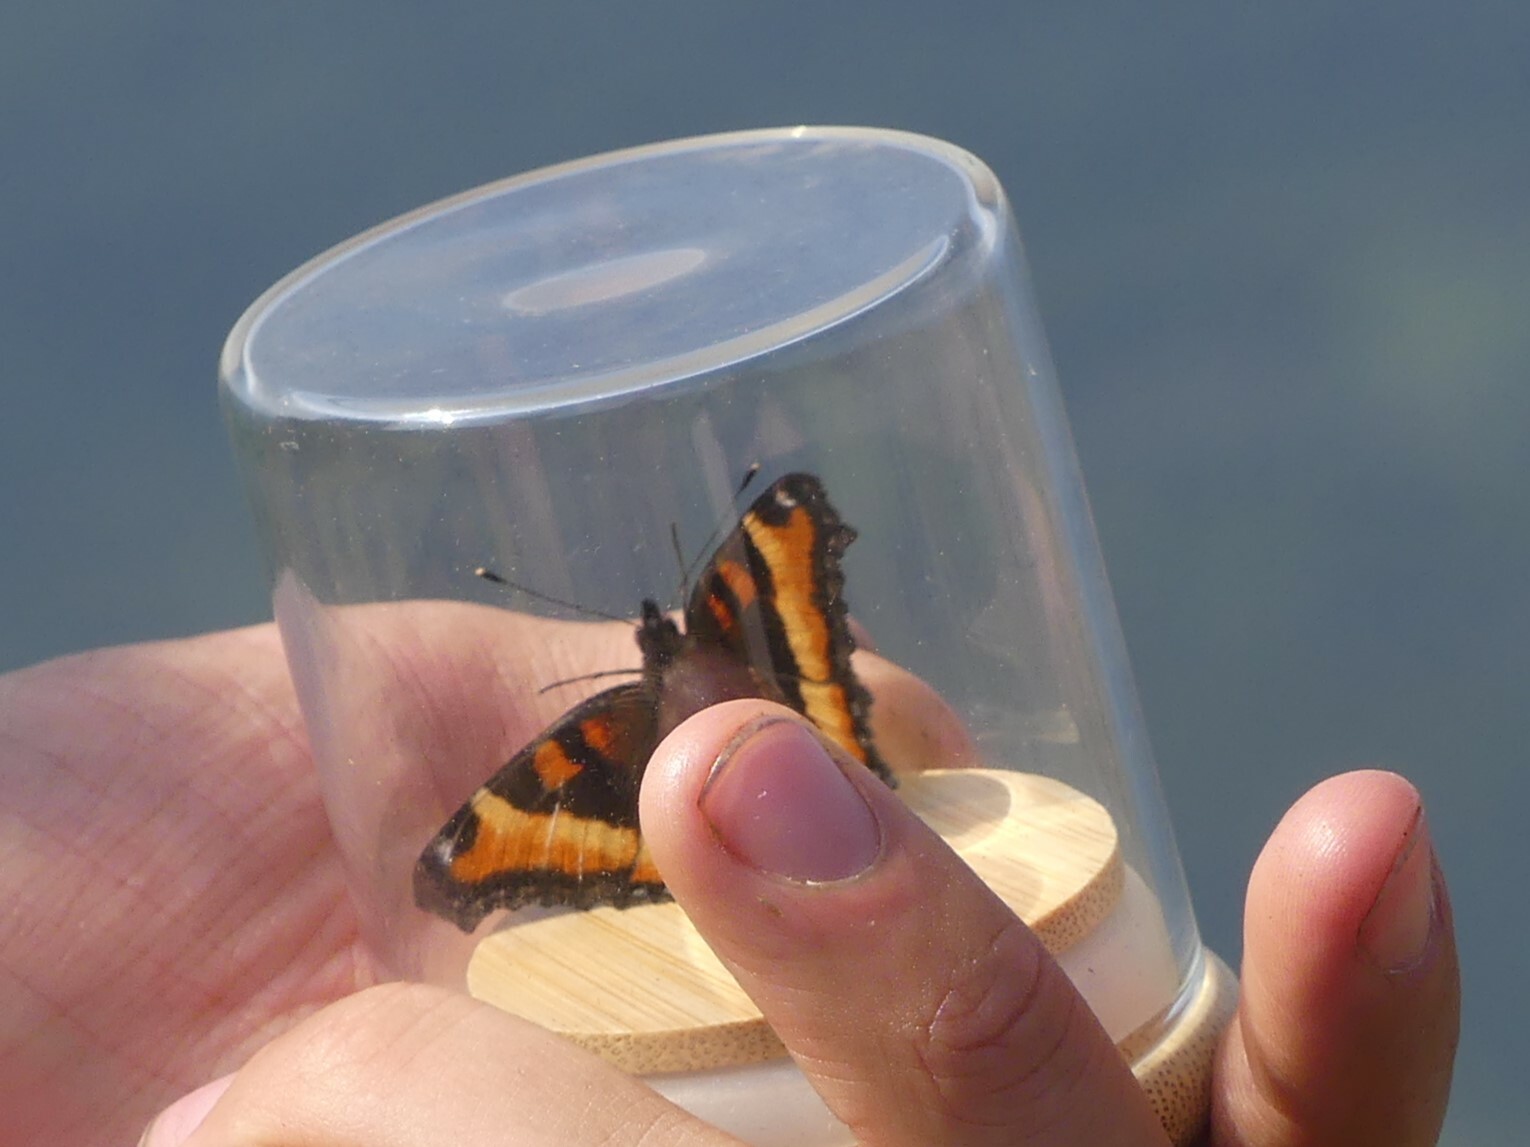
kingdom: Animalia
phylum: Arthropoda
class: Insecta
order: Lepidoptera
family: Nymphalidae
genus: Aglais
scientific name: Aglais milberti
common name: Milbert's tortoiseshell
